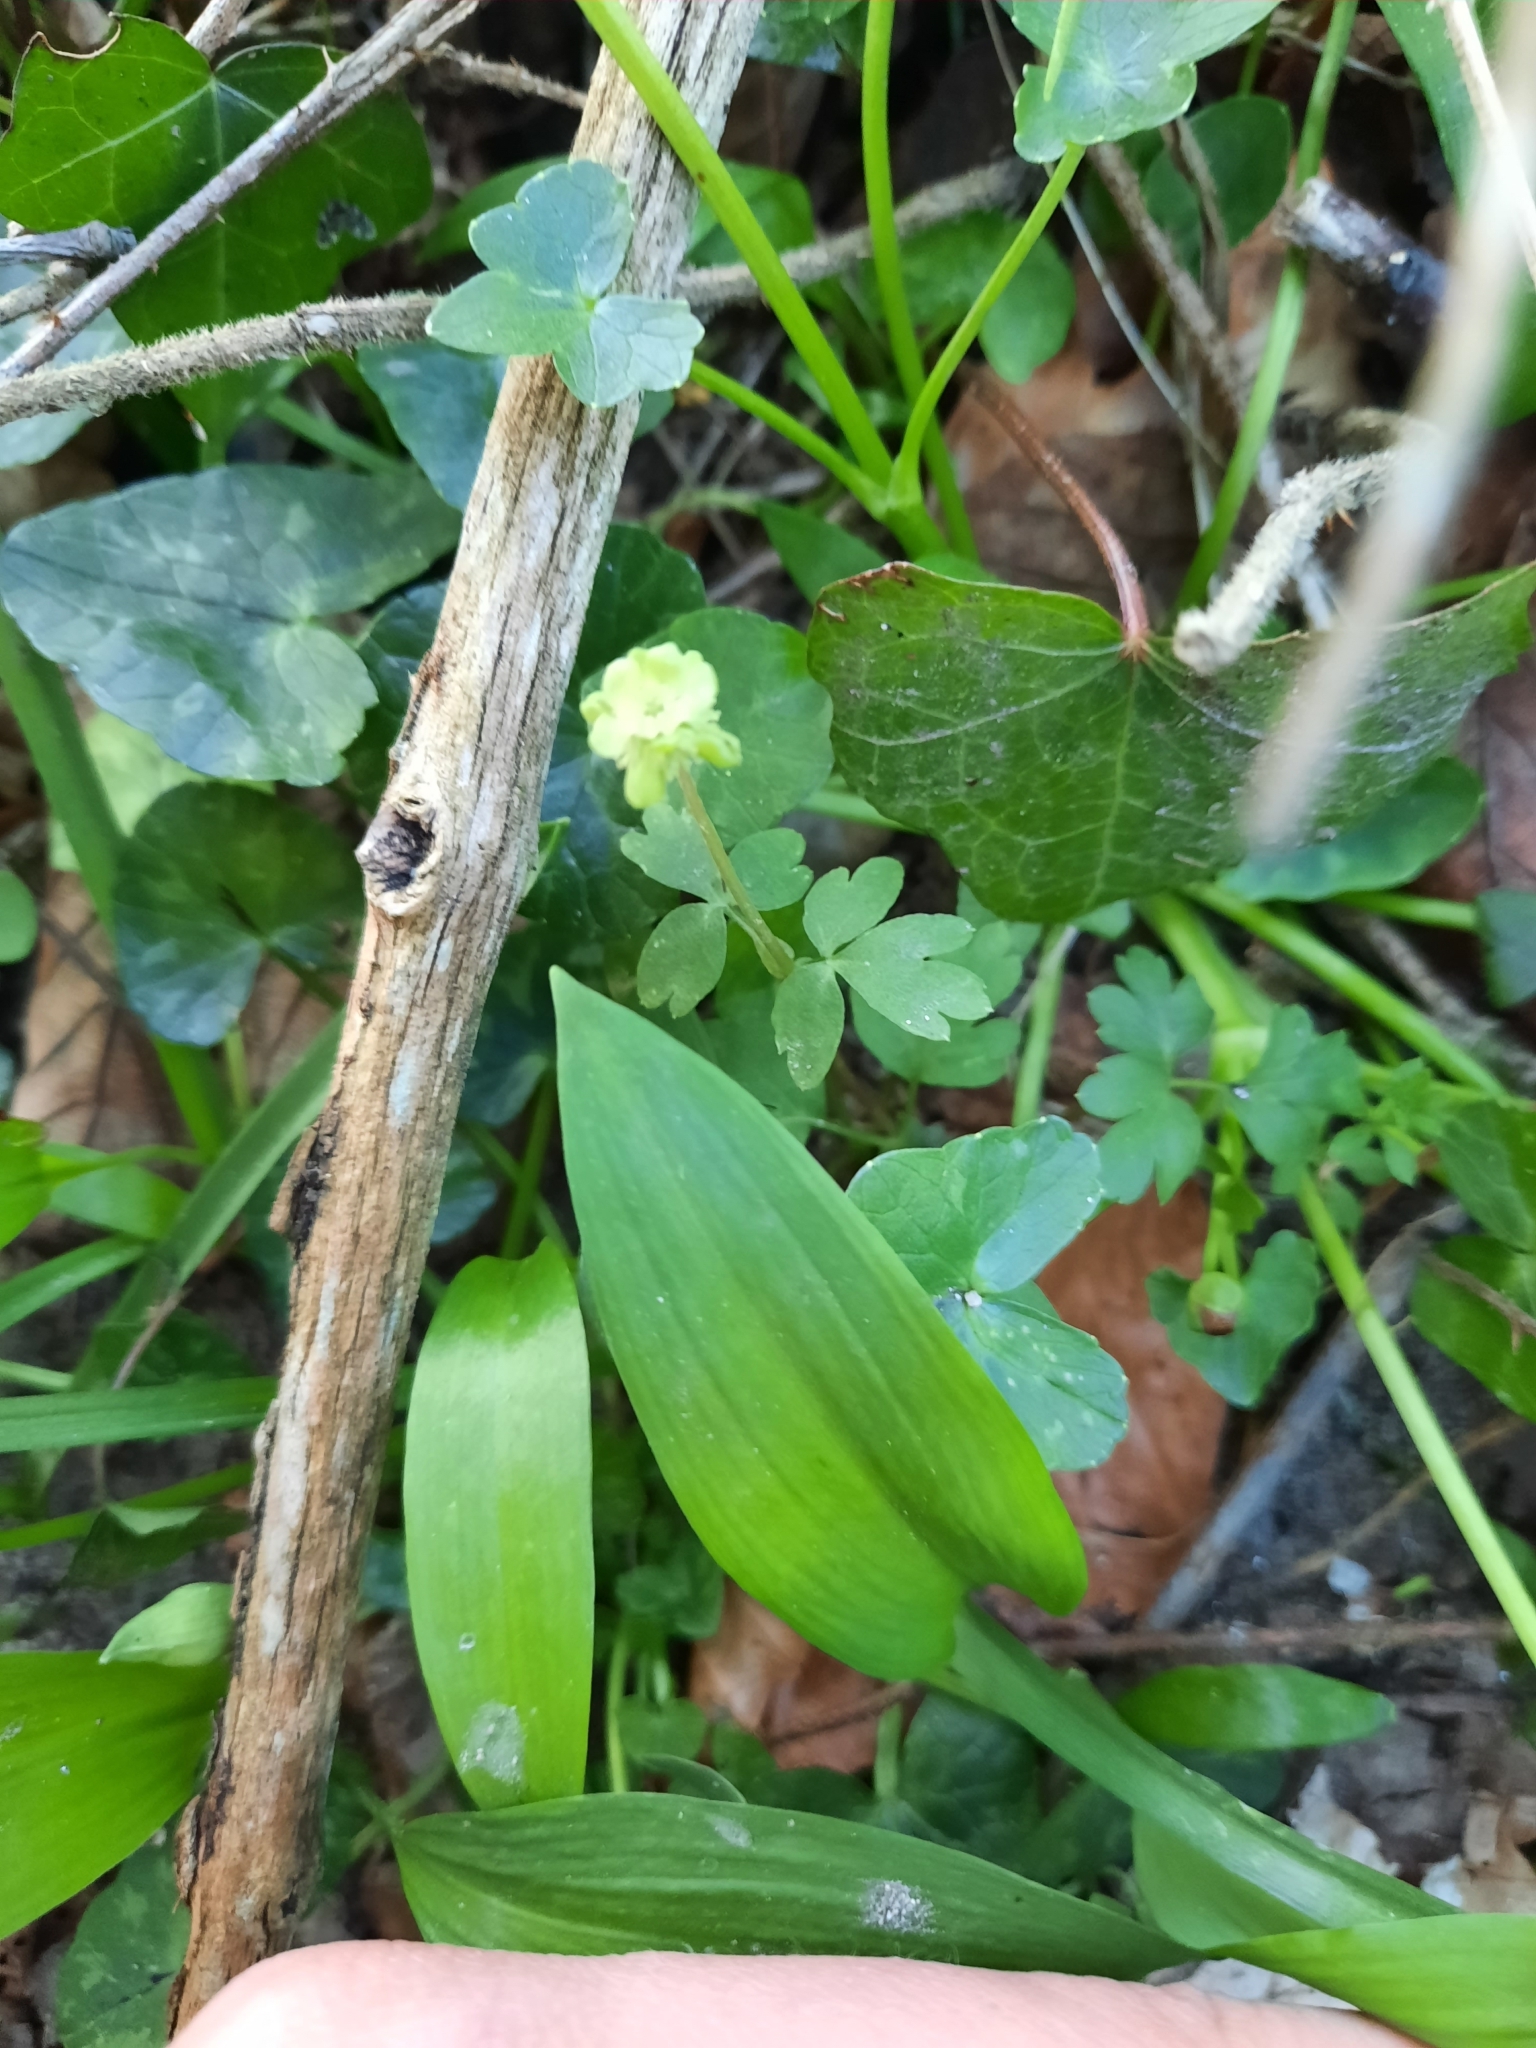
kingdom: Plantae
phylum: Tracheophyta
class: Magnoliopsida
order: Dipsacales
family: Viburnaceae
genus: Adoxa
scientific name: Adoxa moschatellina
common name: Moschatel
